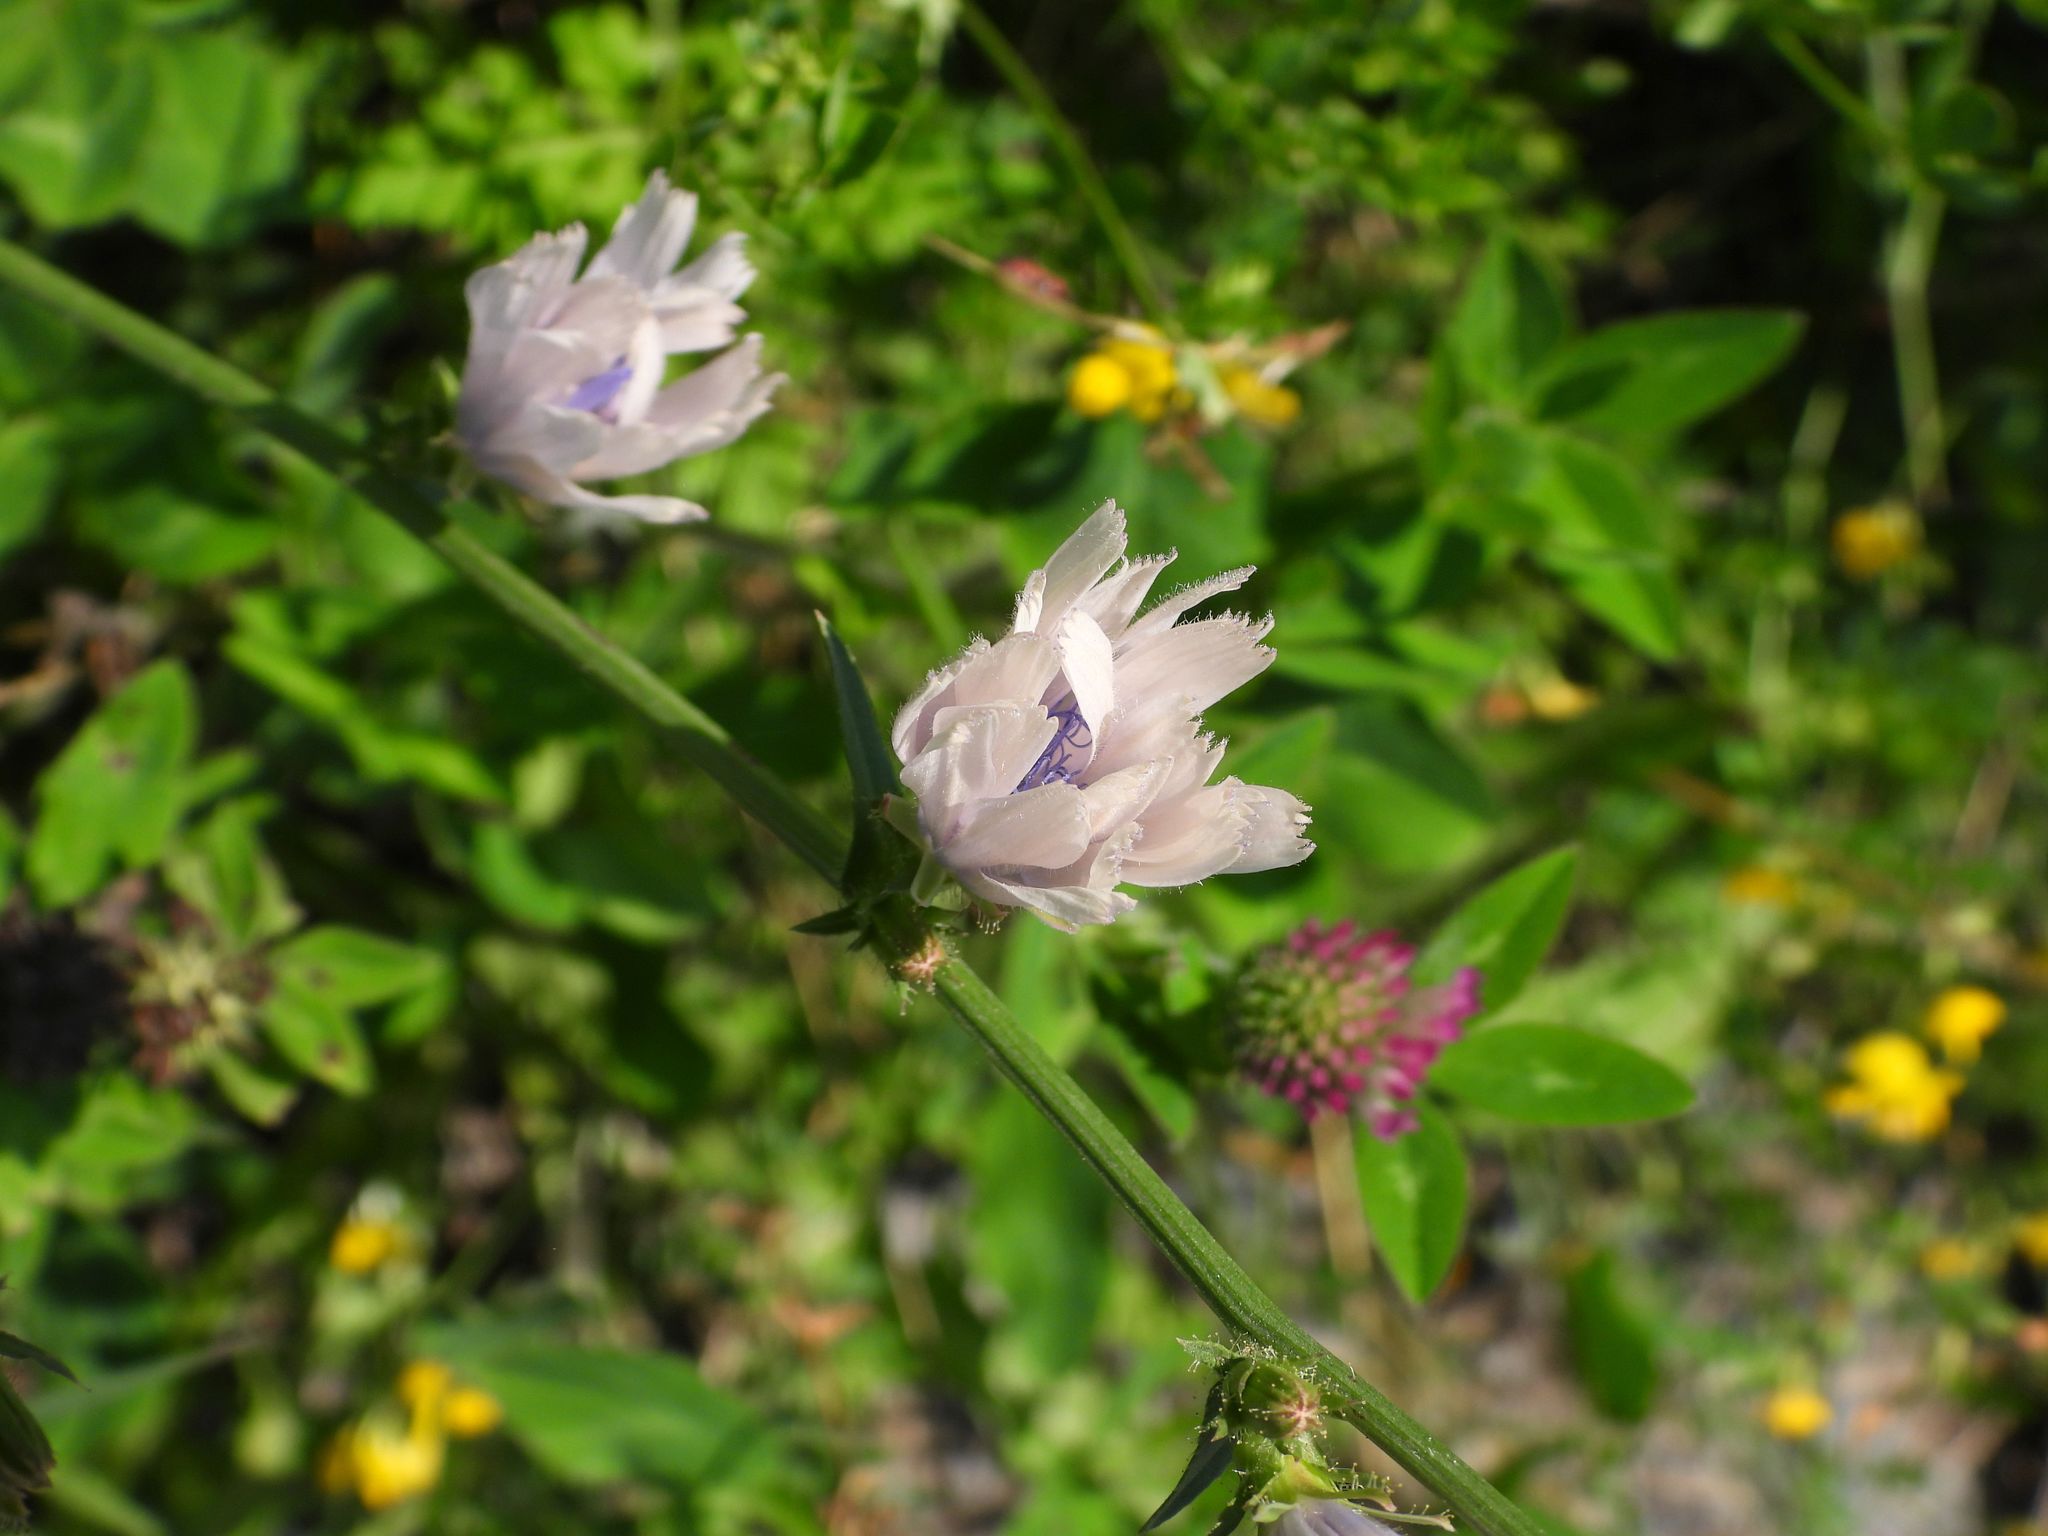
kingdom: Plantae
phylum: Tracheophyta
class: Magnoliopsida
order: Asterales
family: Asteraceae
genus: Cichorium
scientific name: Cichorium intybus
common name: Chicory
